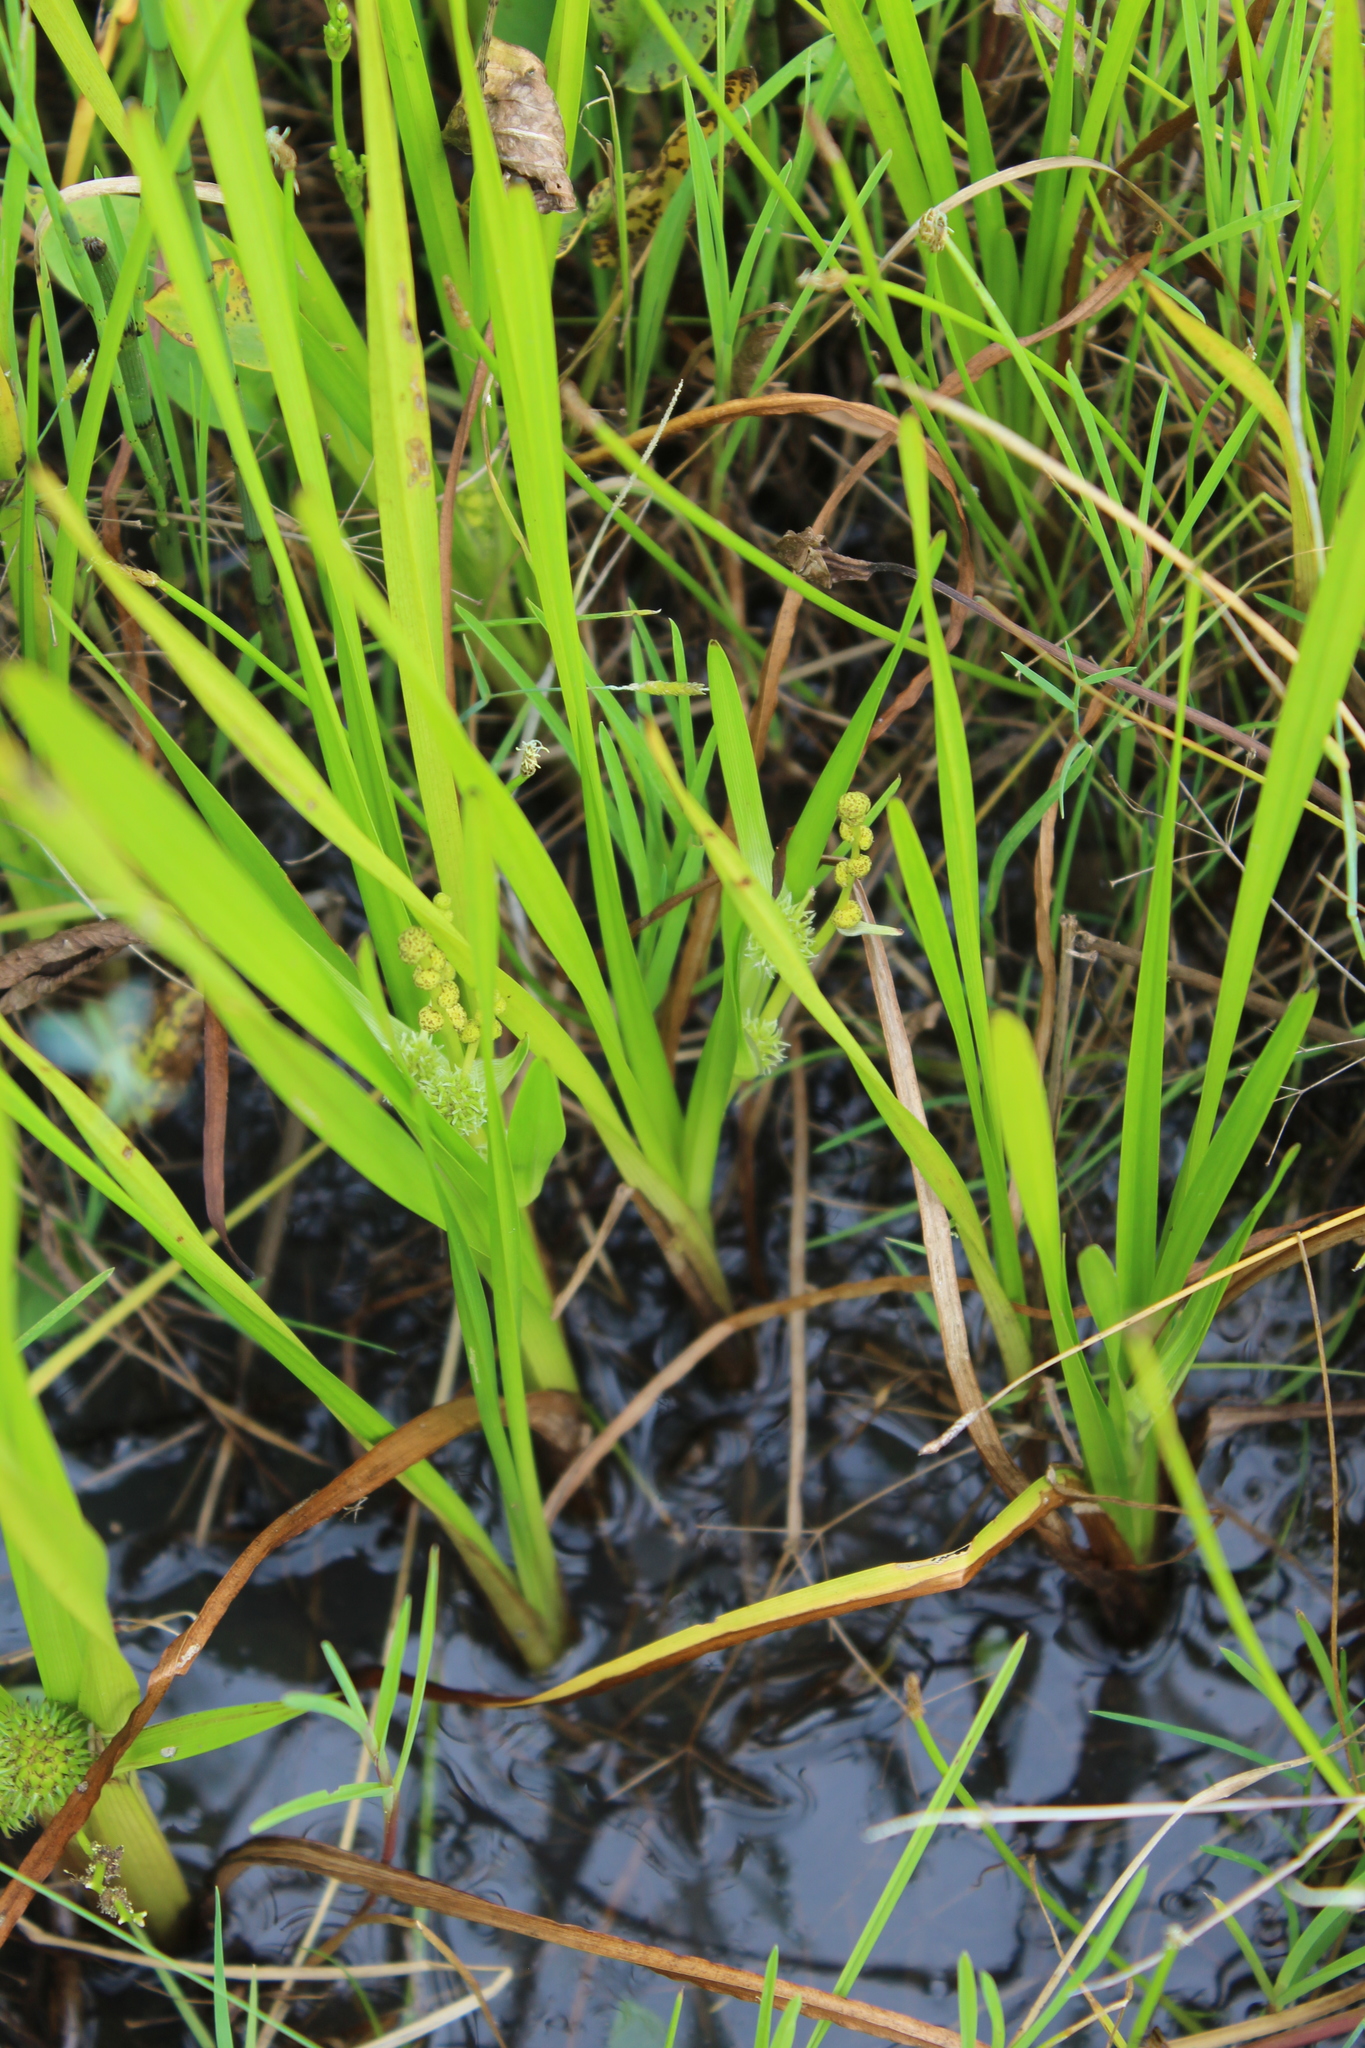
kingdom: Plantae
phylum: Tracheophyta
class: Liliopsida
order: Poales
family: Typhaceae
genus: Sparganium
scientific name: Sparganium erectum
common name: Branched bur-reed
